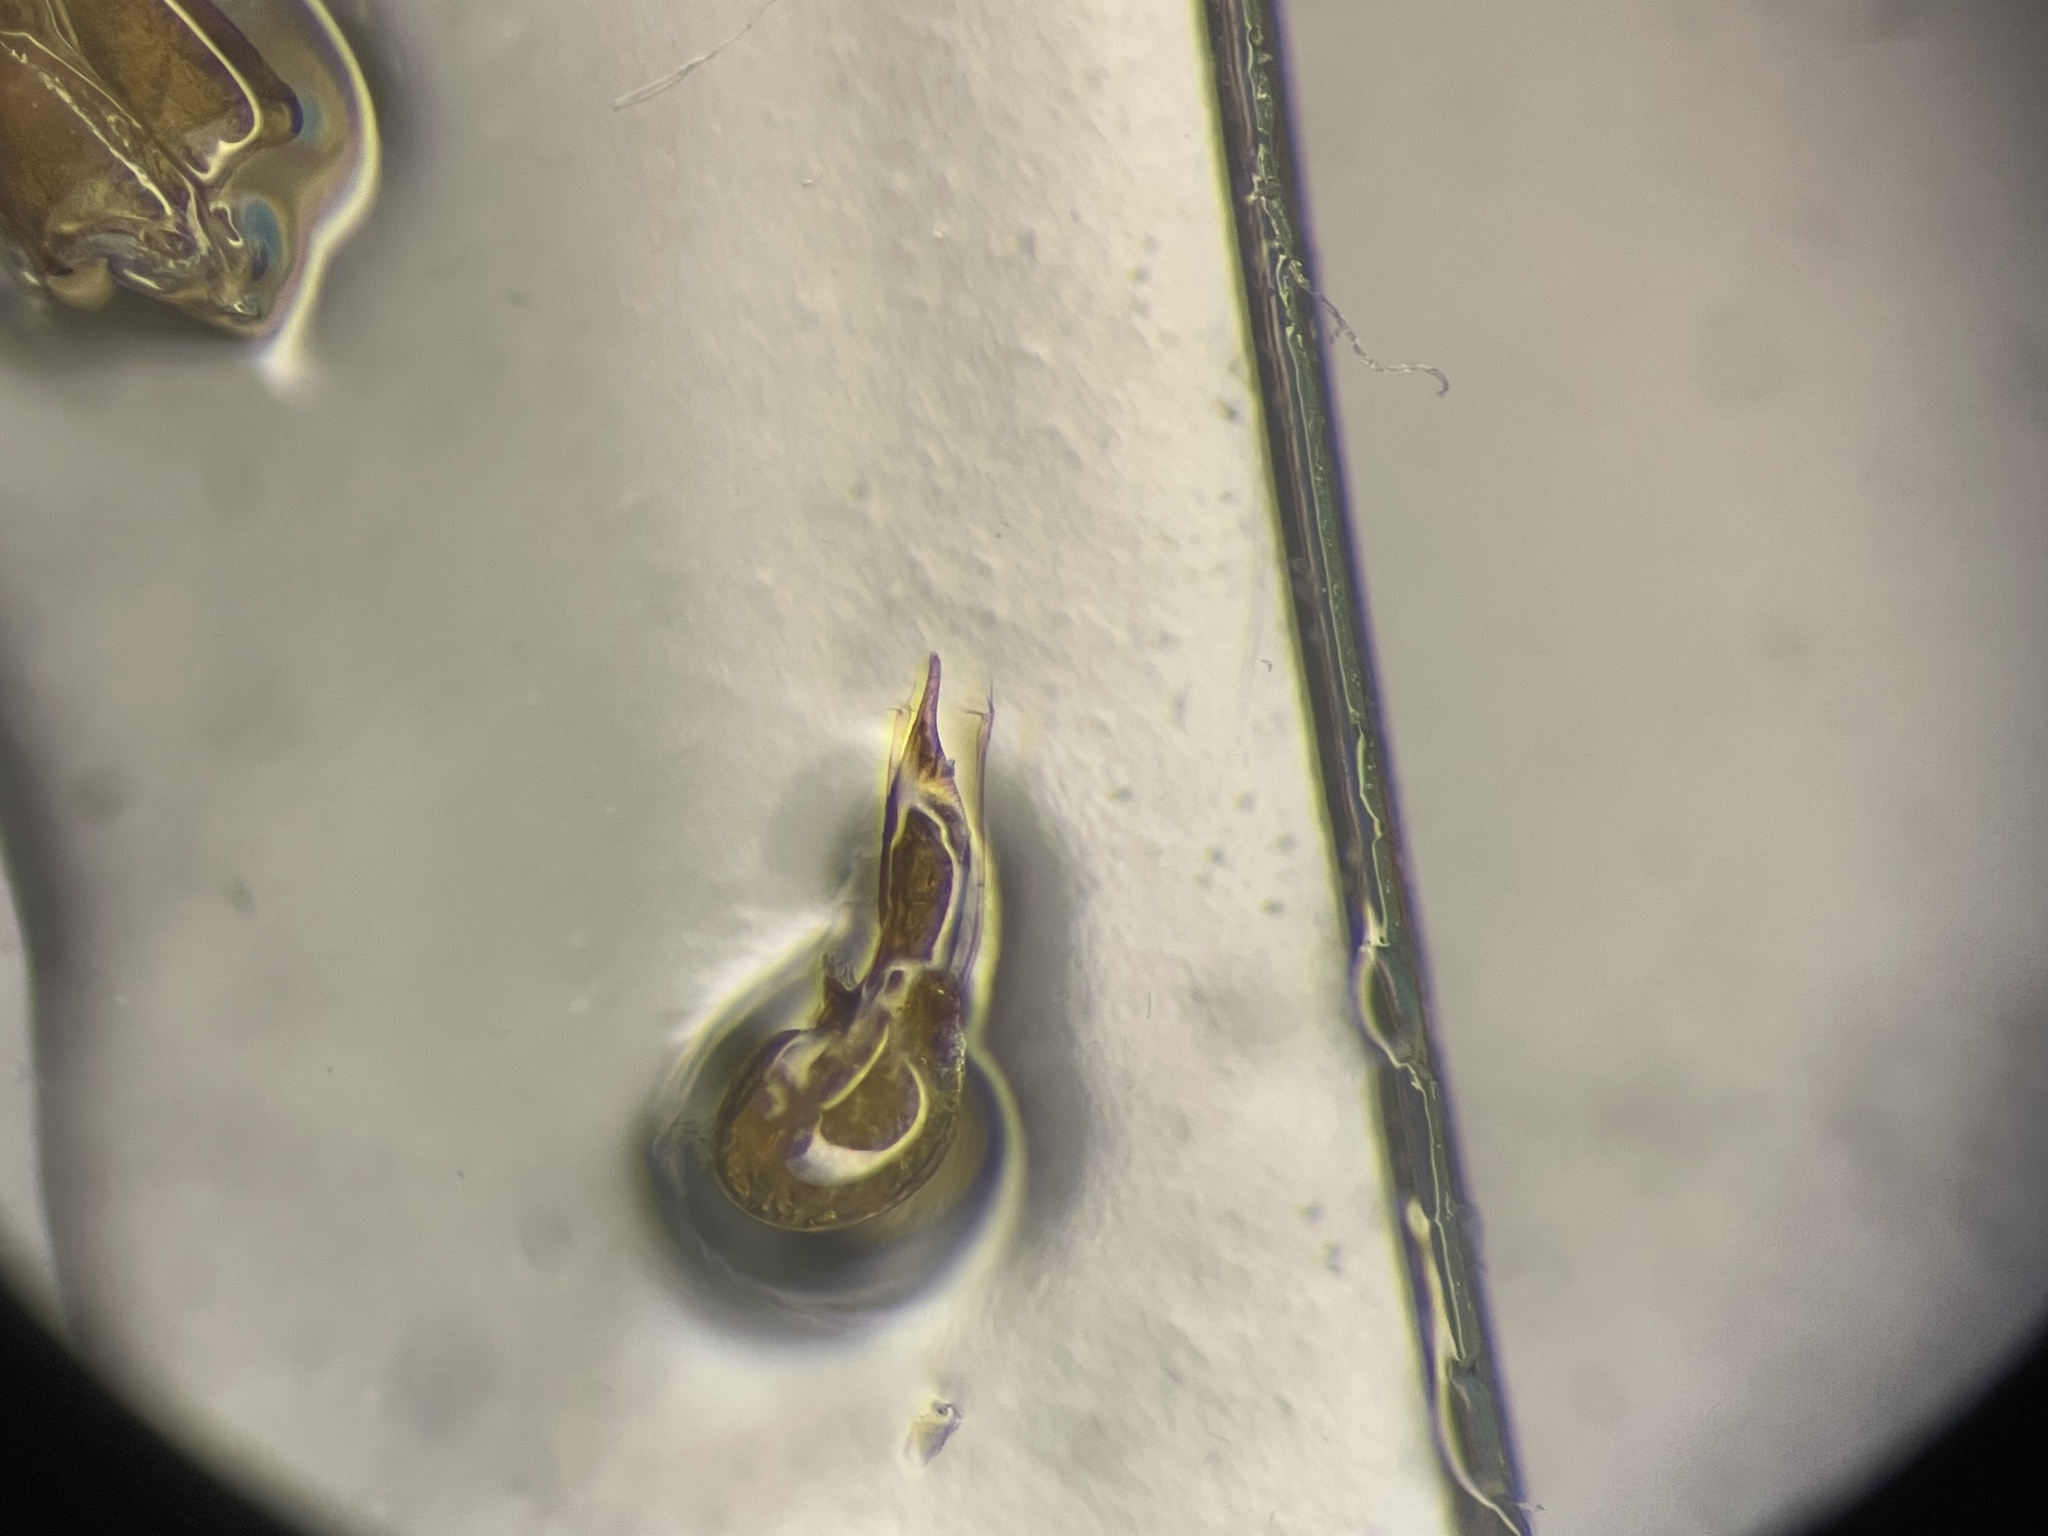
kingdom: Animalia
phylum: Arthropoda
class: Insecta
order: Coleoptera
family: Staphylinidae
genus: Atrecus
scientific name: Atrecus americanus
